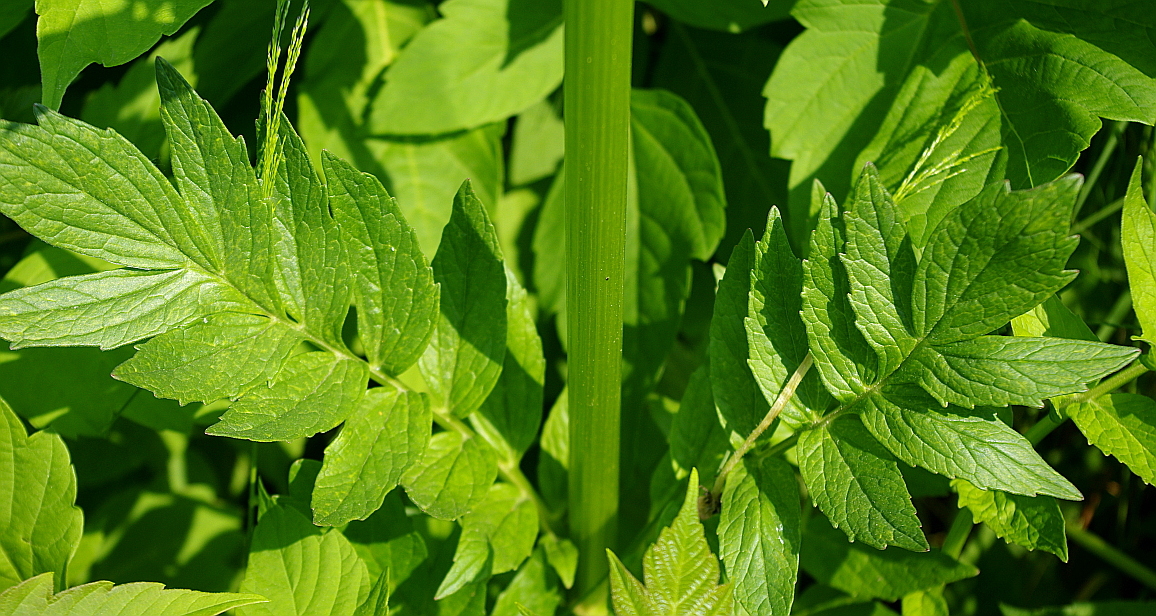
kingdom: Plantae
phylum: Tracheophyta
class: Magnoliopsida
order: Dipsacales
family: Caprifoliaceae
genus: Valeriana
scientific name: Valeriana officinalis
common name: Common valerian
